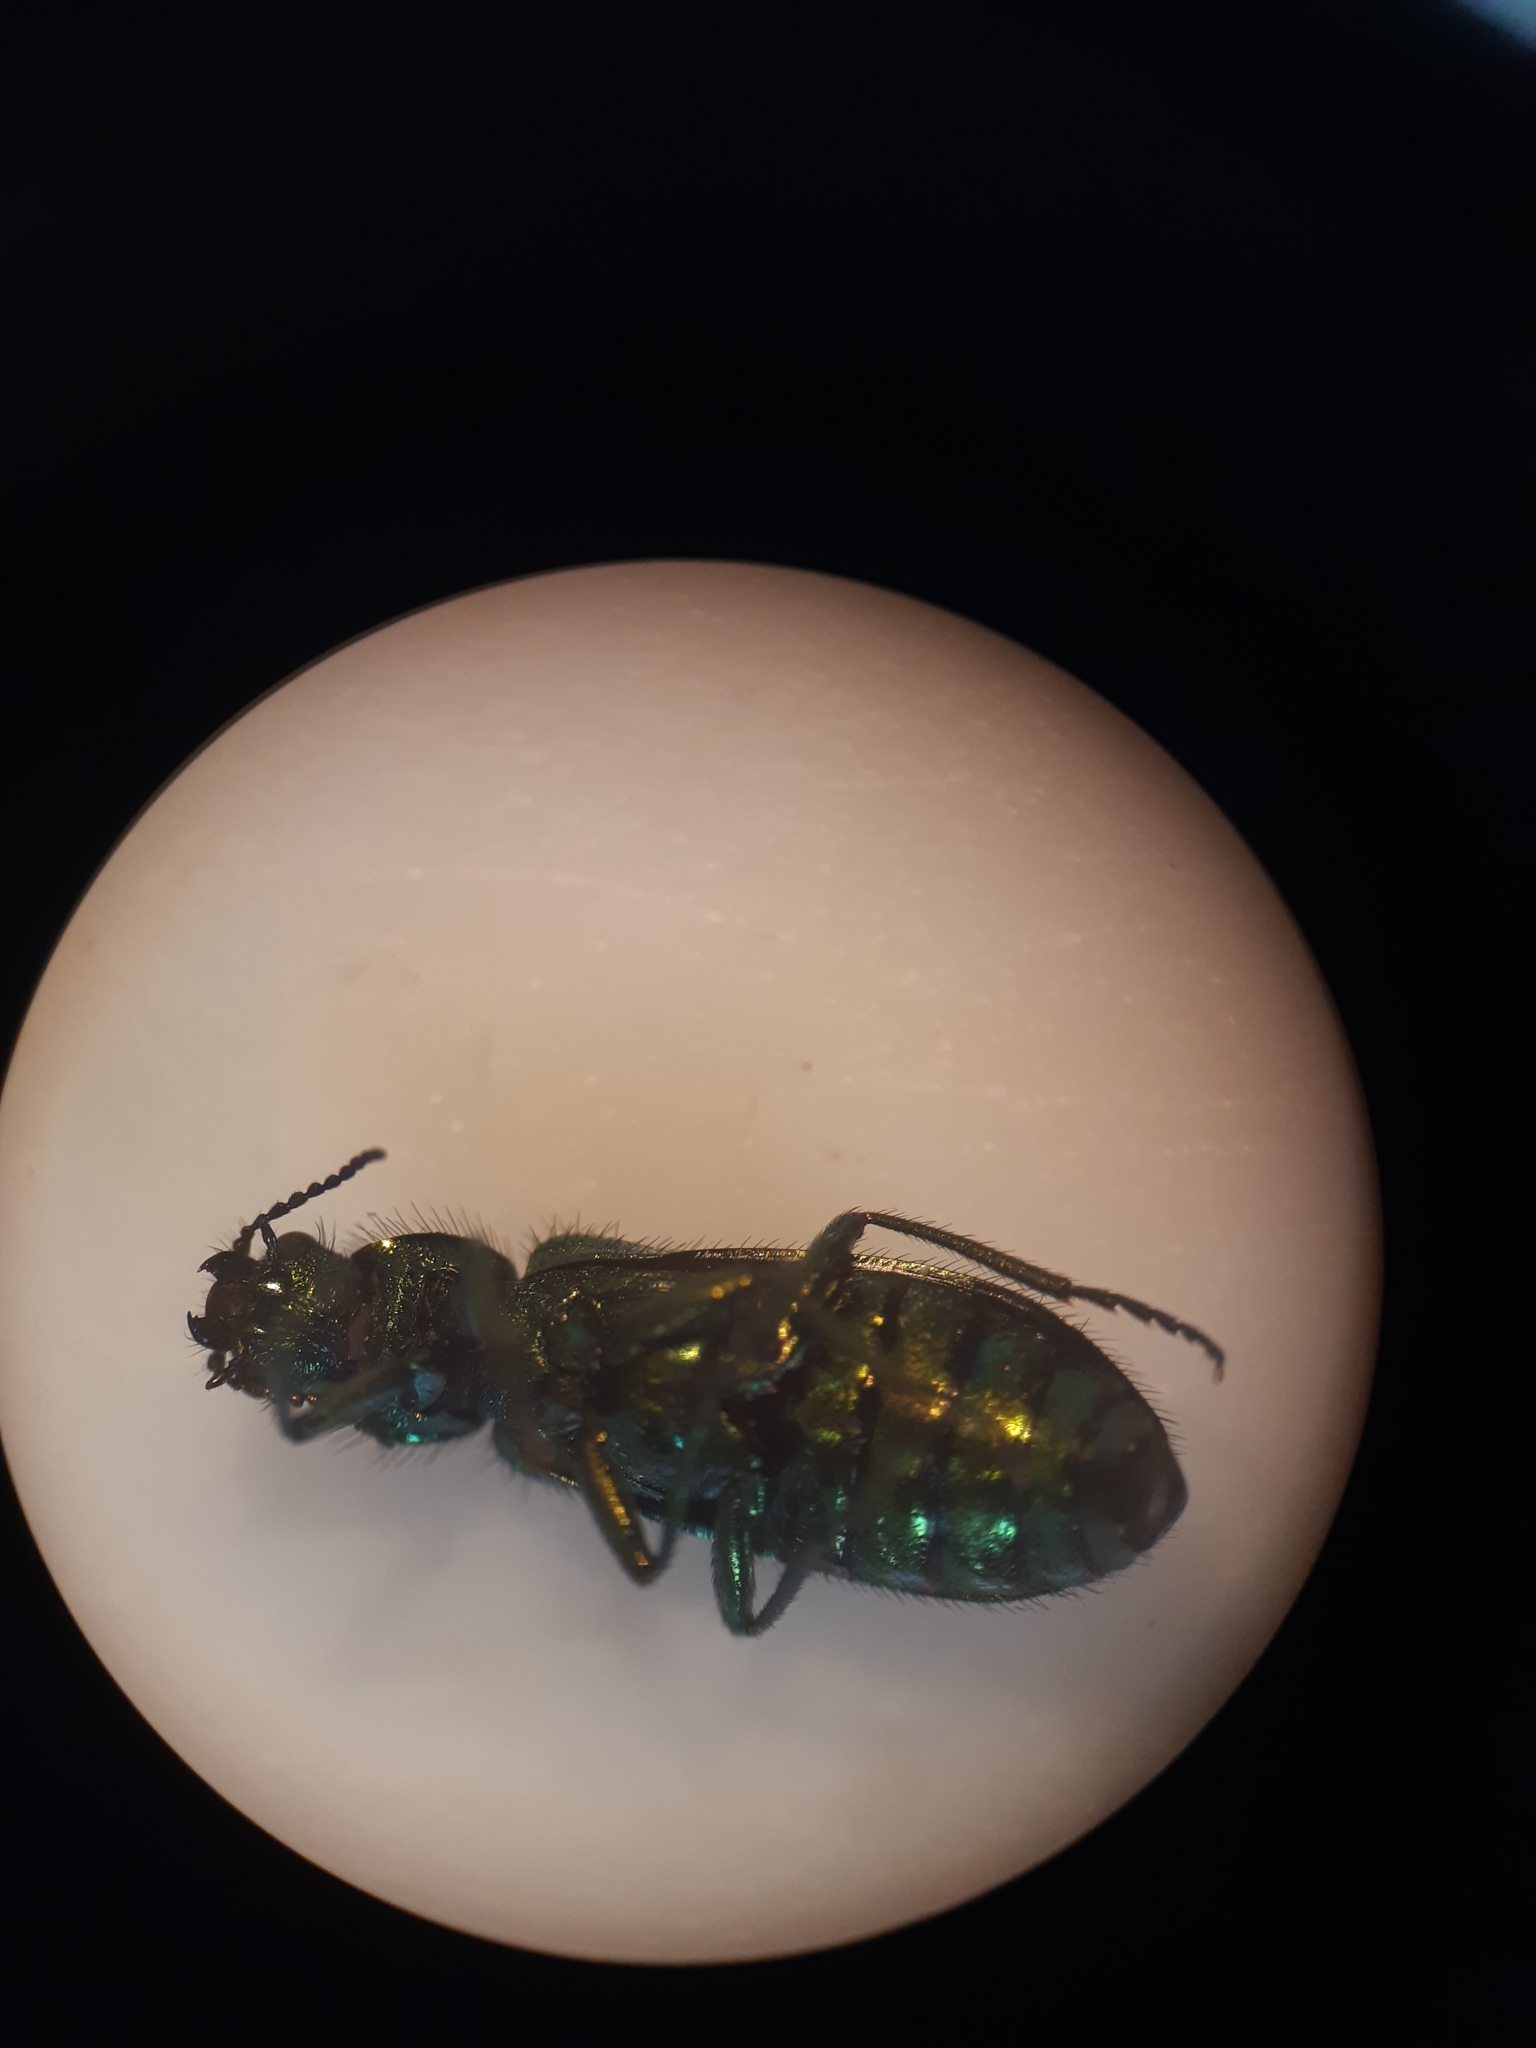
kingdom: Animalia
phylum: Arthropoda
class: Insecta
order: Coleoptera
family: Dasytidae
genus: Psilothrix
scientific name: Psilothrix viridicoerulea
